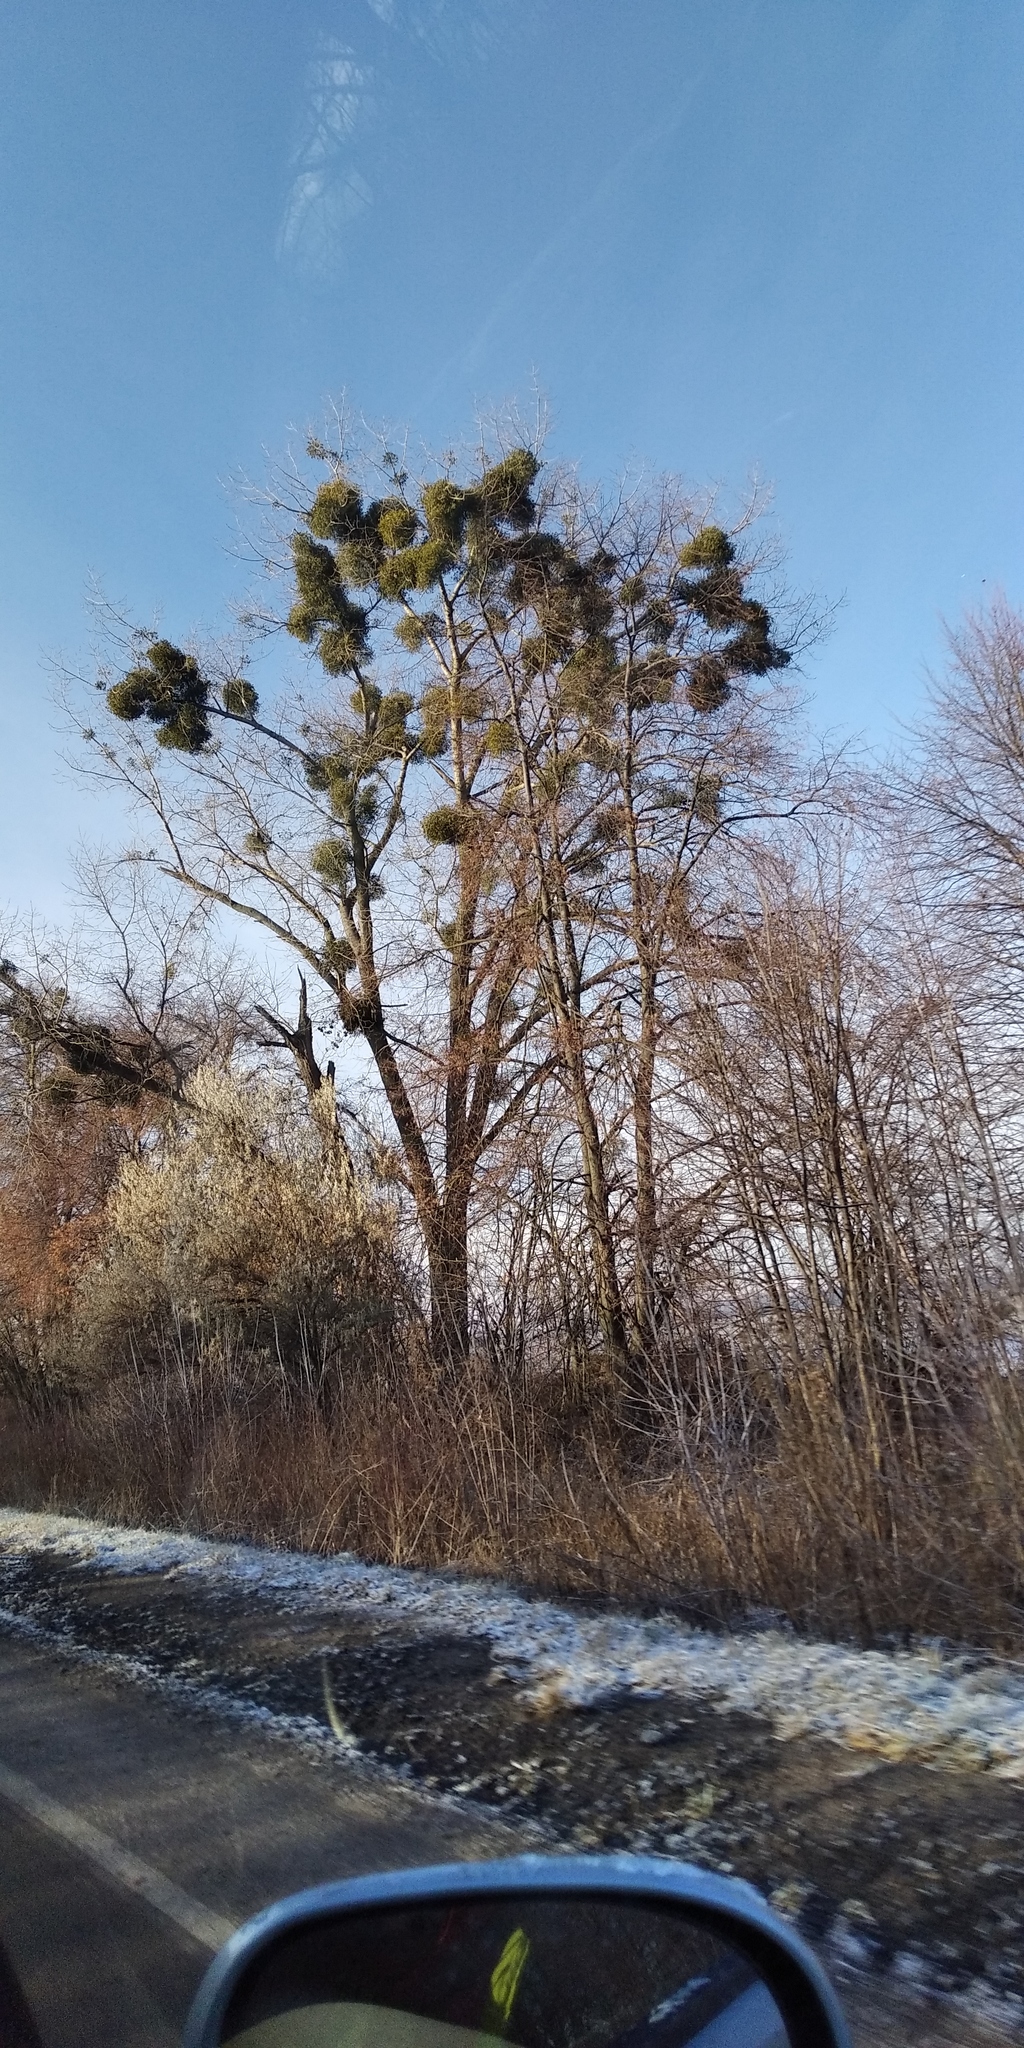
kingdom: Plantae
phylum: Tracheophyta
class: Magnoliopsida
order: Santalales
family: Viscaceae
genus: Viscum
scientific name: Viscum album
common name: Mistletoe
